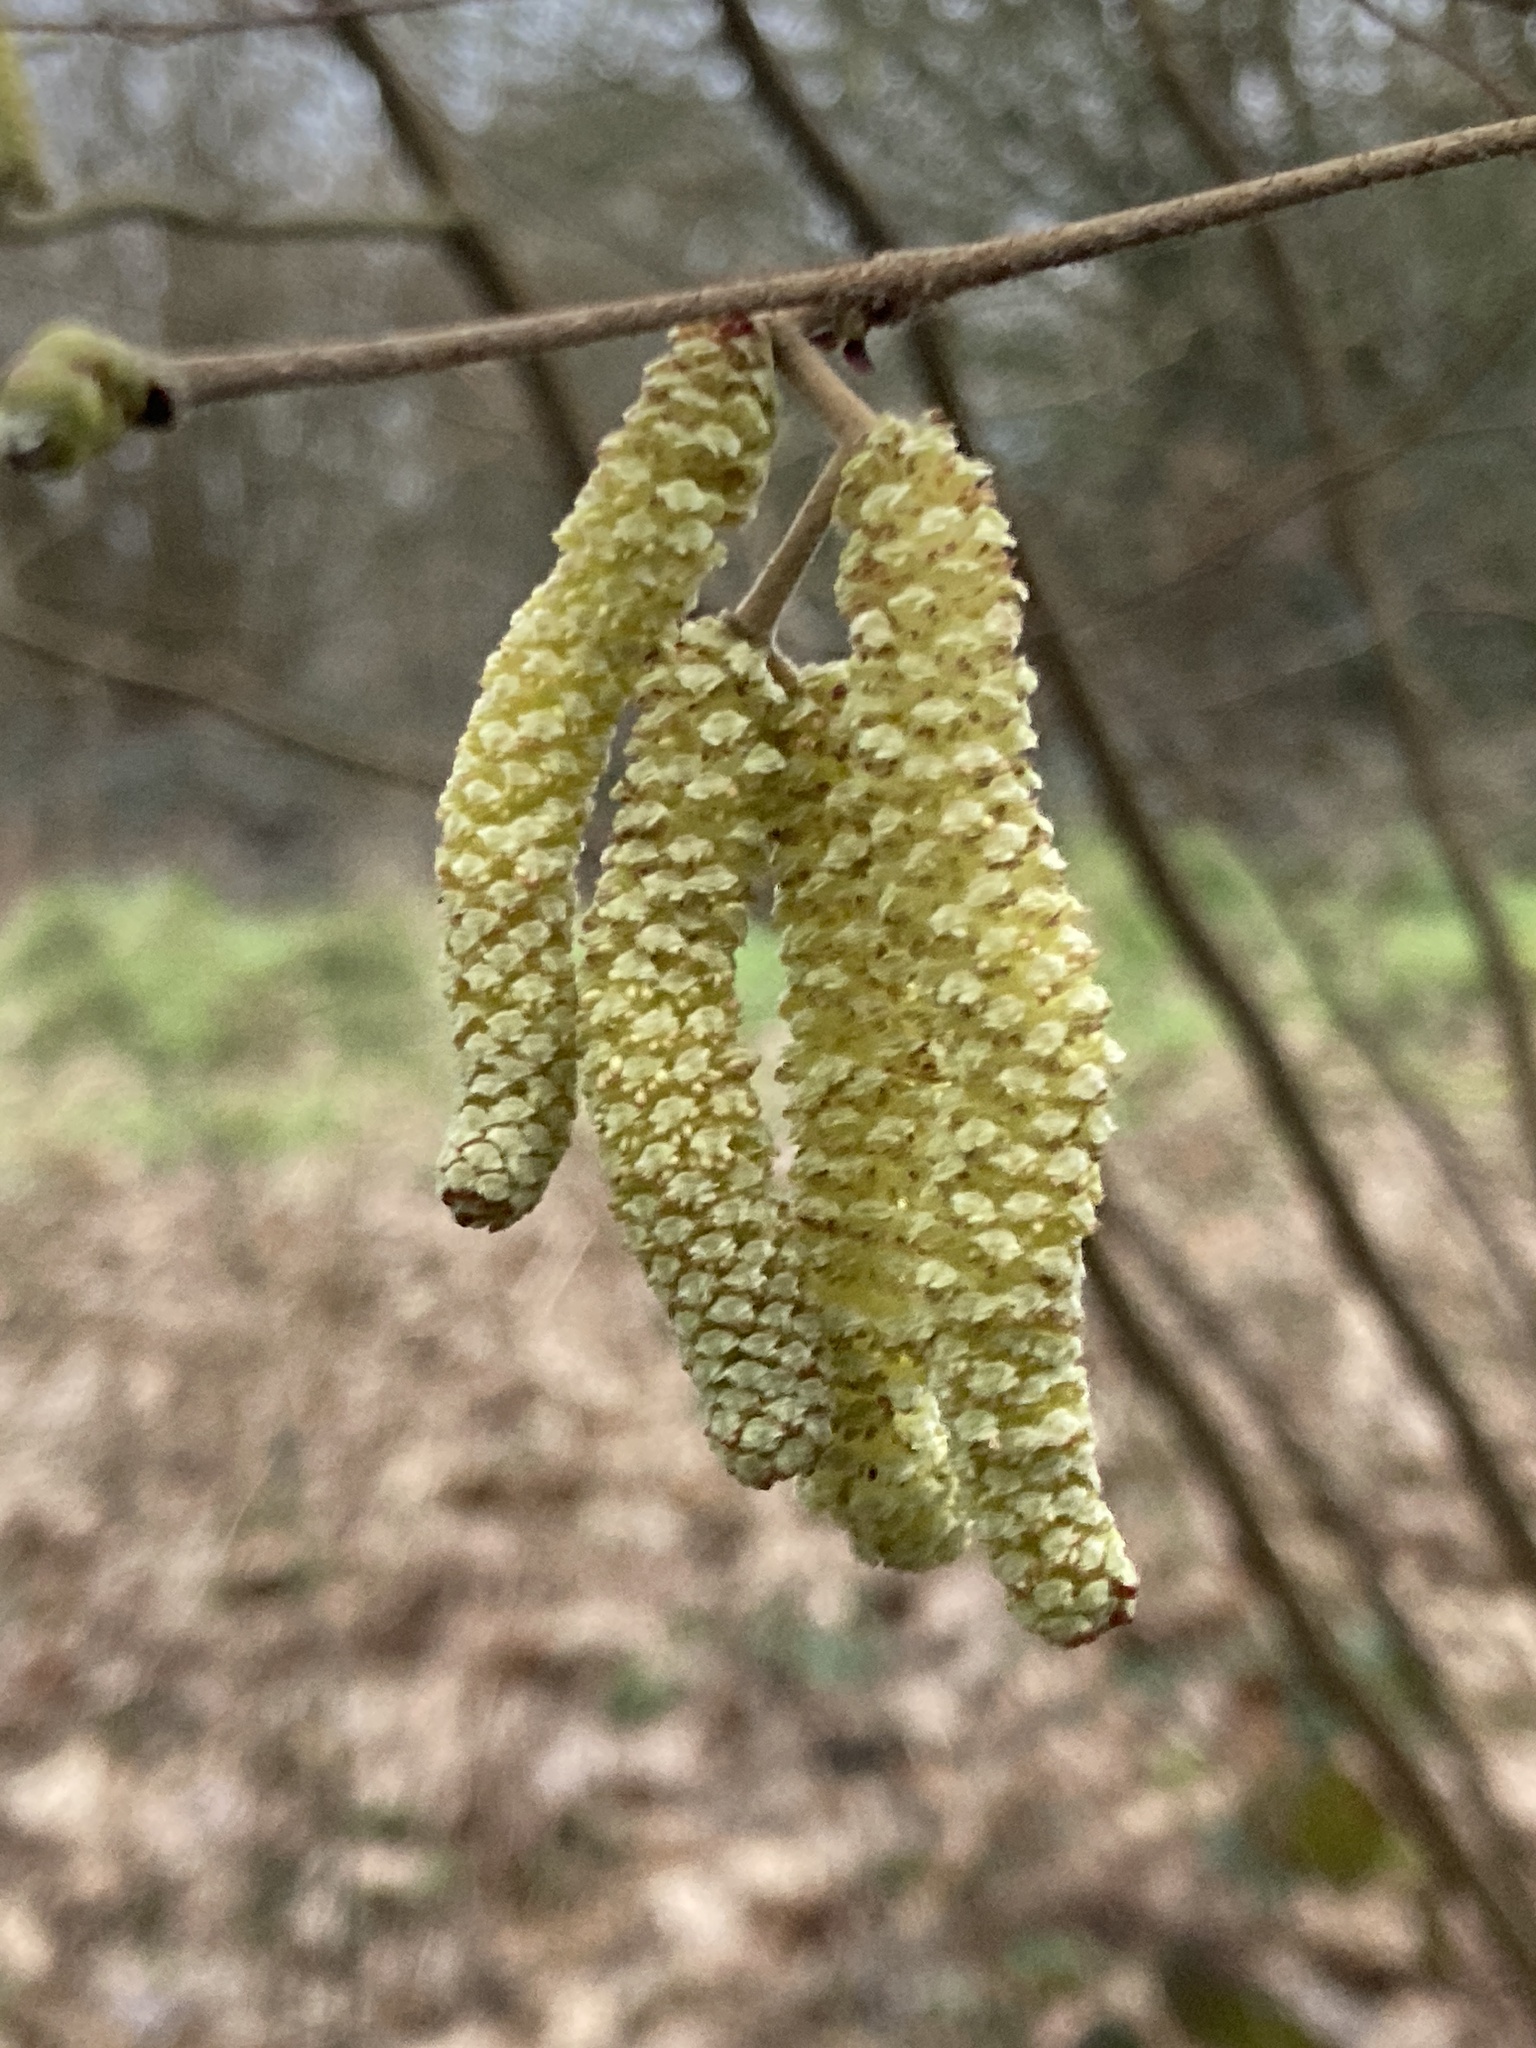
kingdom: Plantae
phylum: Tracheophyta
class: Magnoliopsida
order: Fagales
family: Betulaceae
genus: Corylus
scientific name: Corylus avellana
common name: European hazel
